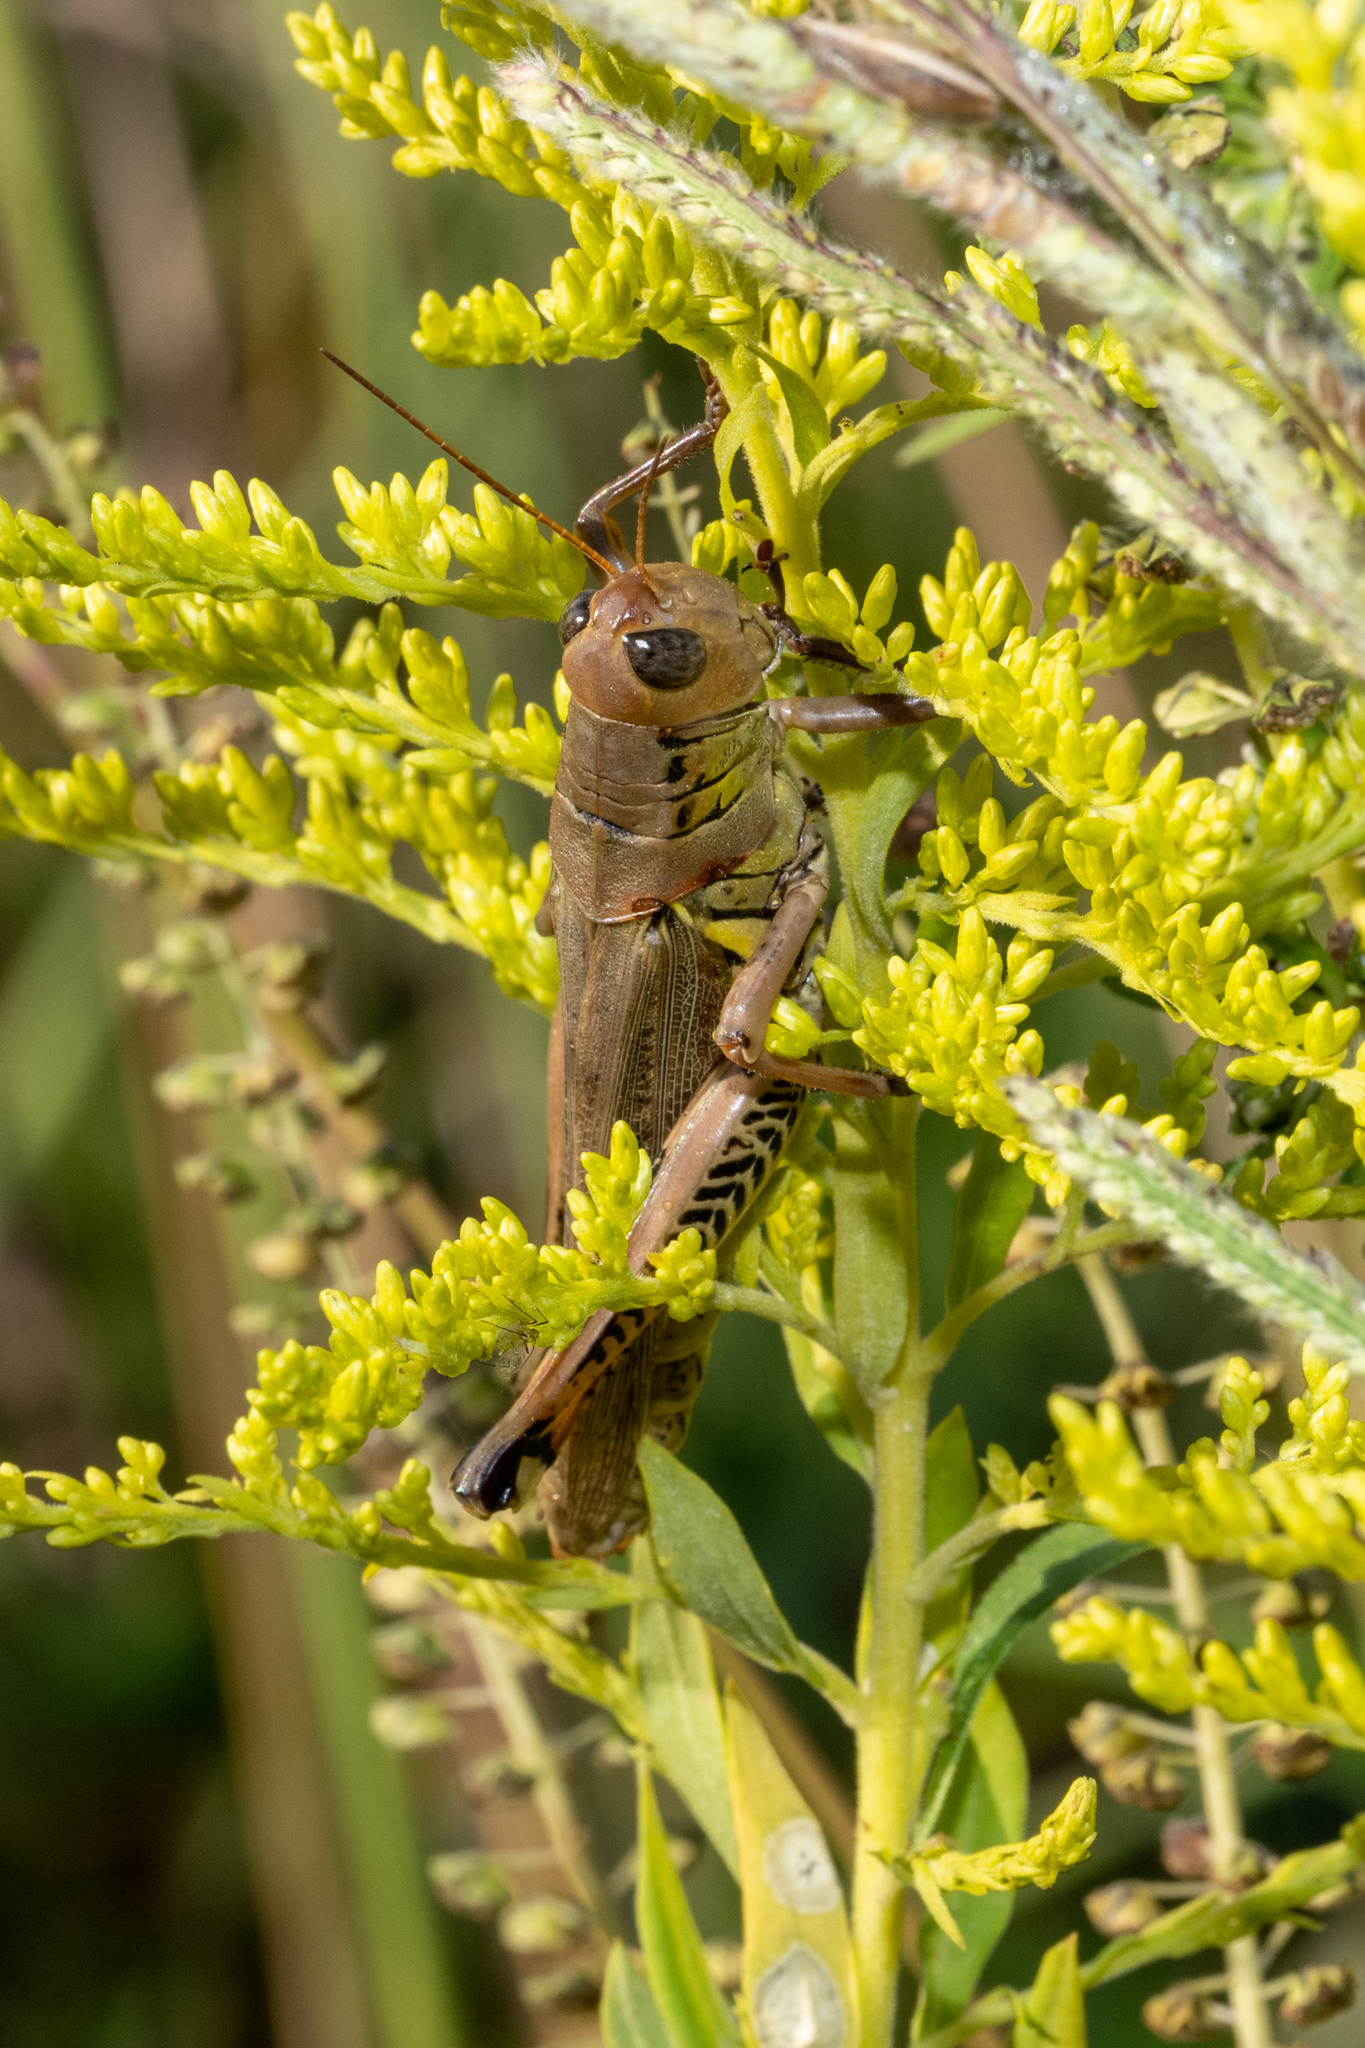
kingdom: Animalia
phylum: Arthropoda
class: Insecta
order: Orthoptera
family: Acrididae
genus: Melanoplus
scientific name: Melanoplus differentialis
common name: Differential grasshopper
